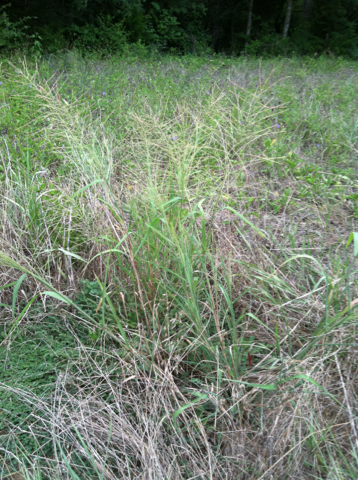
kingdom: Plantae
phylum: Tracheophyta
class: Liliopsida
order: Poales
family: Poaceae
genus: Leptochloa
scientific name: Leptochloa mucronata
